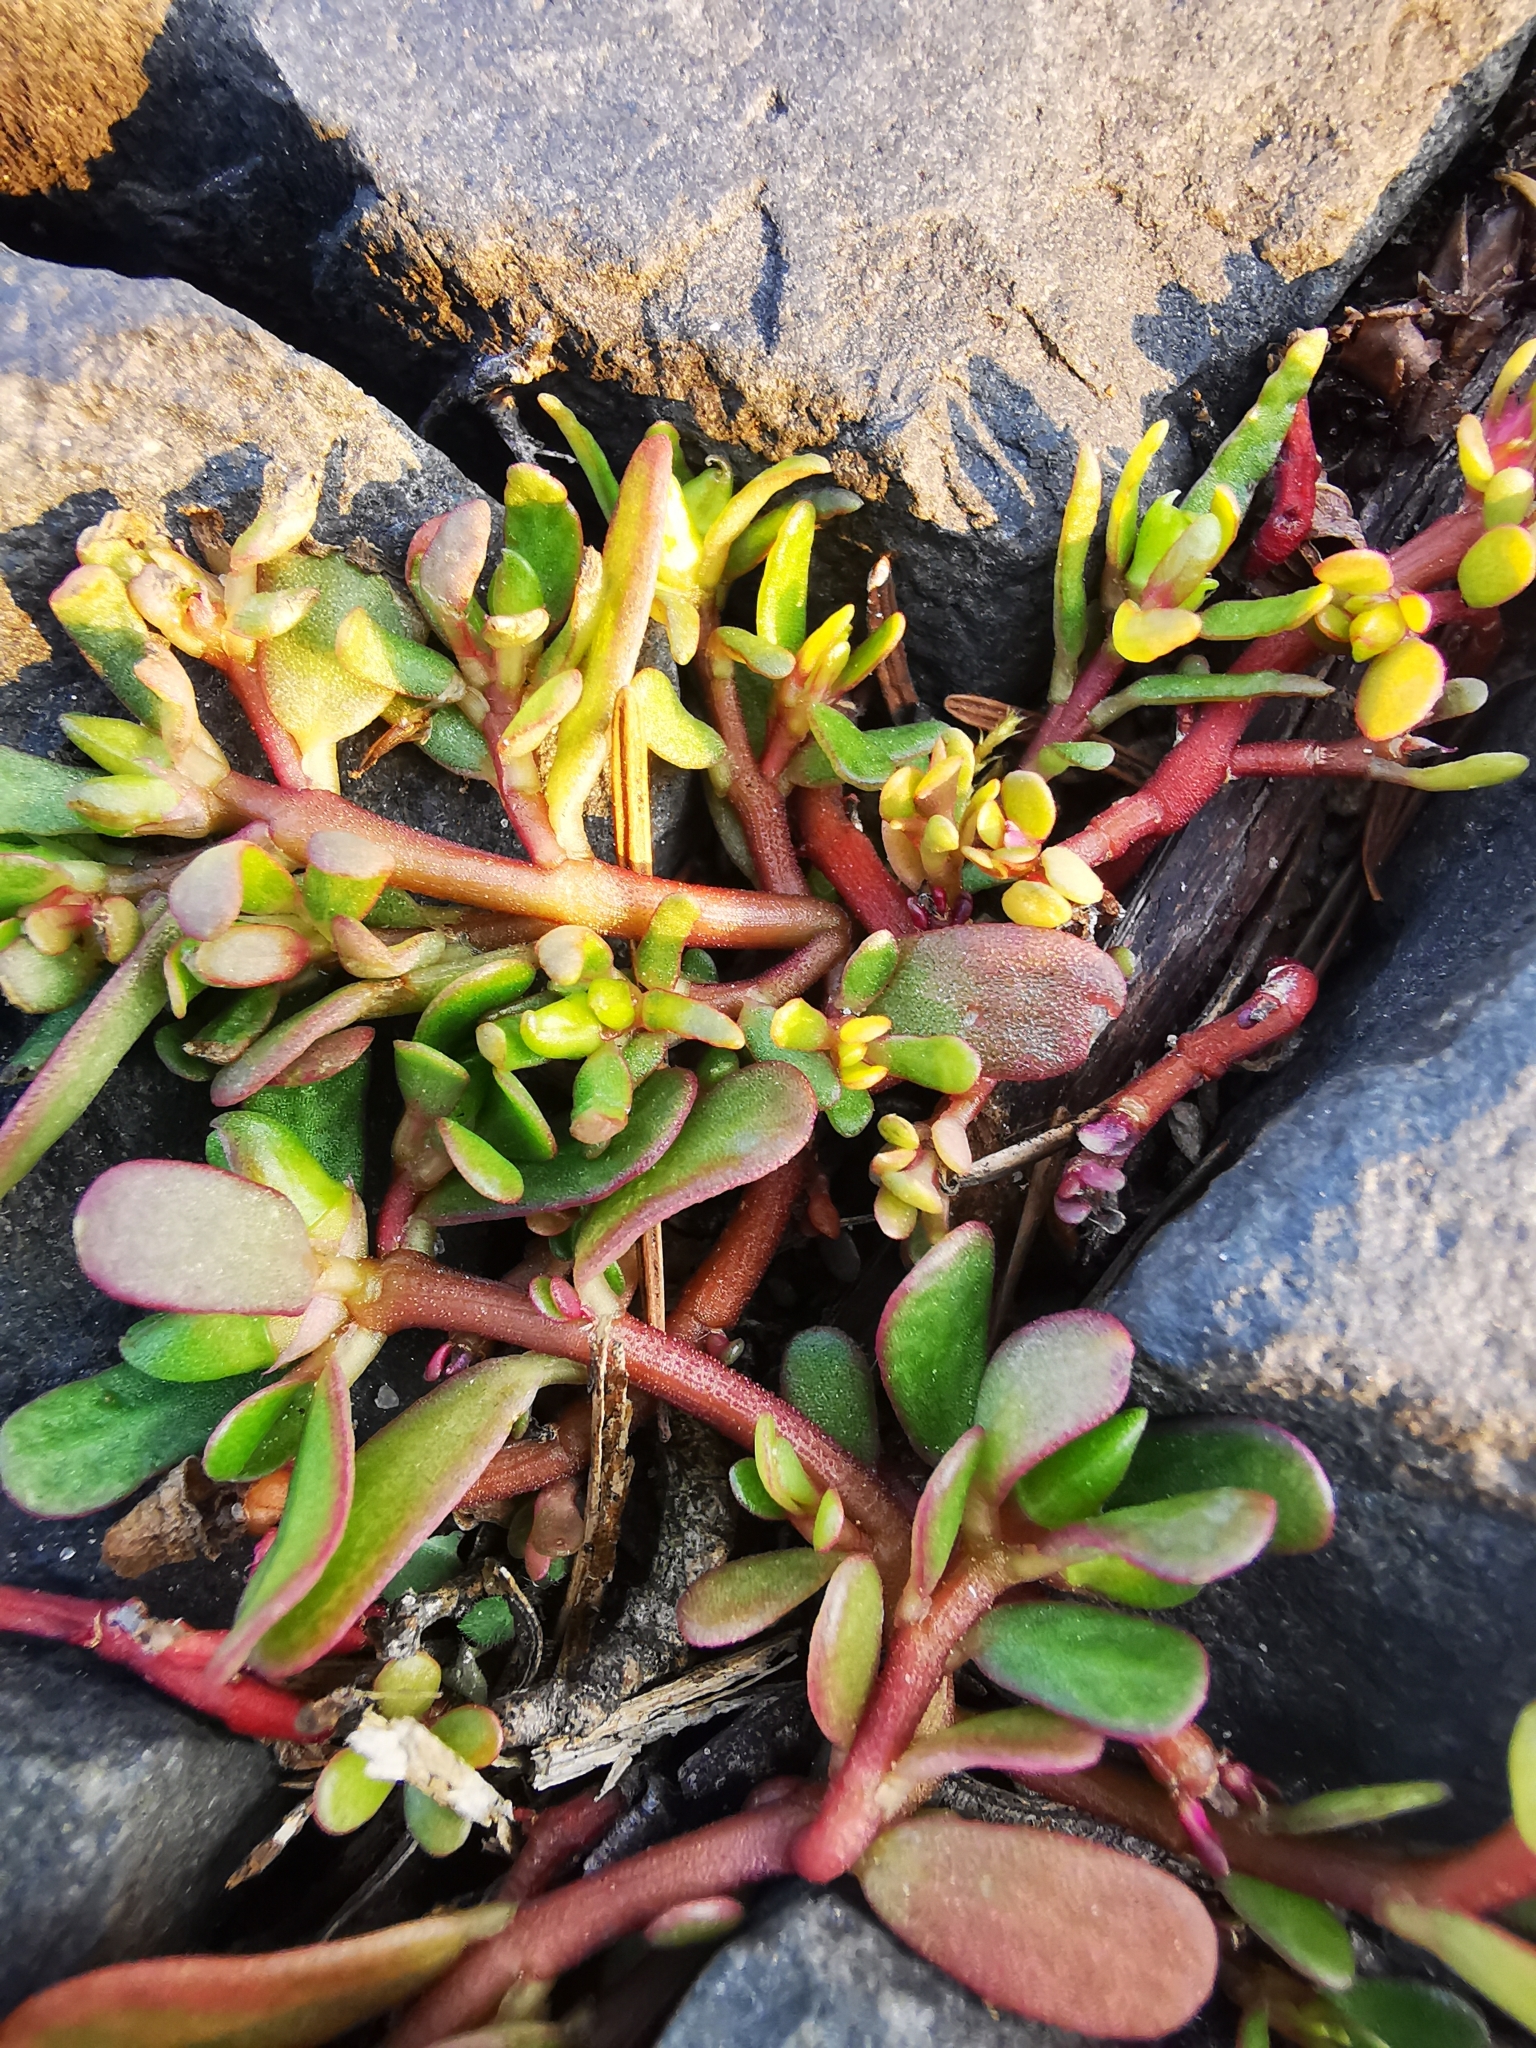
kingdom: Plantae
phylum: Tracheophyta
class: Magnoliopsida
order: Caryophyllales
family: Portulacaceae
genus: Portulaca
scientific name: Portulaca oleracea
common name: Common purslane
